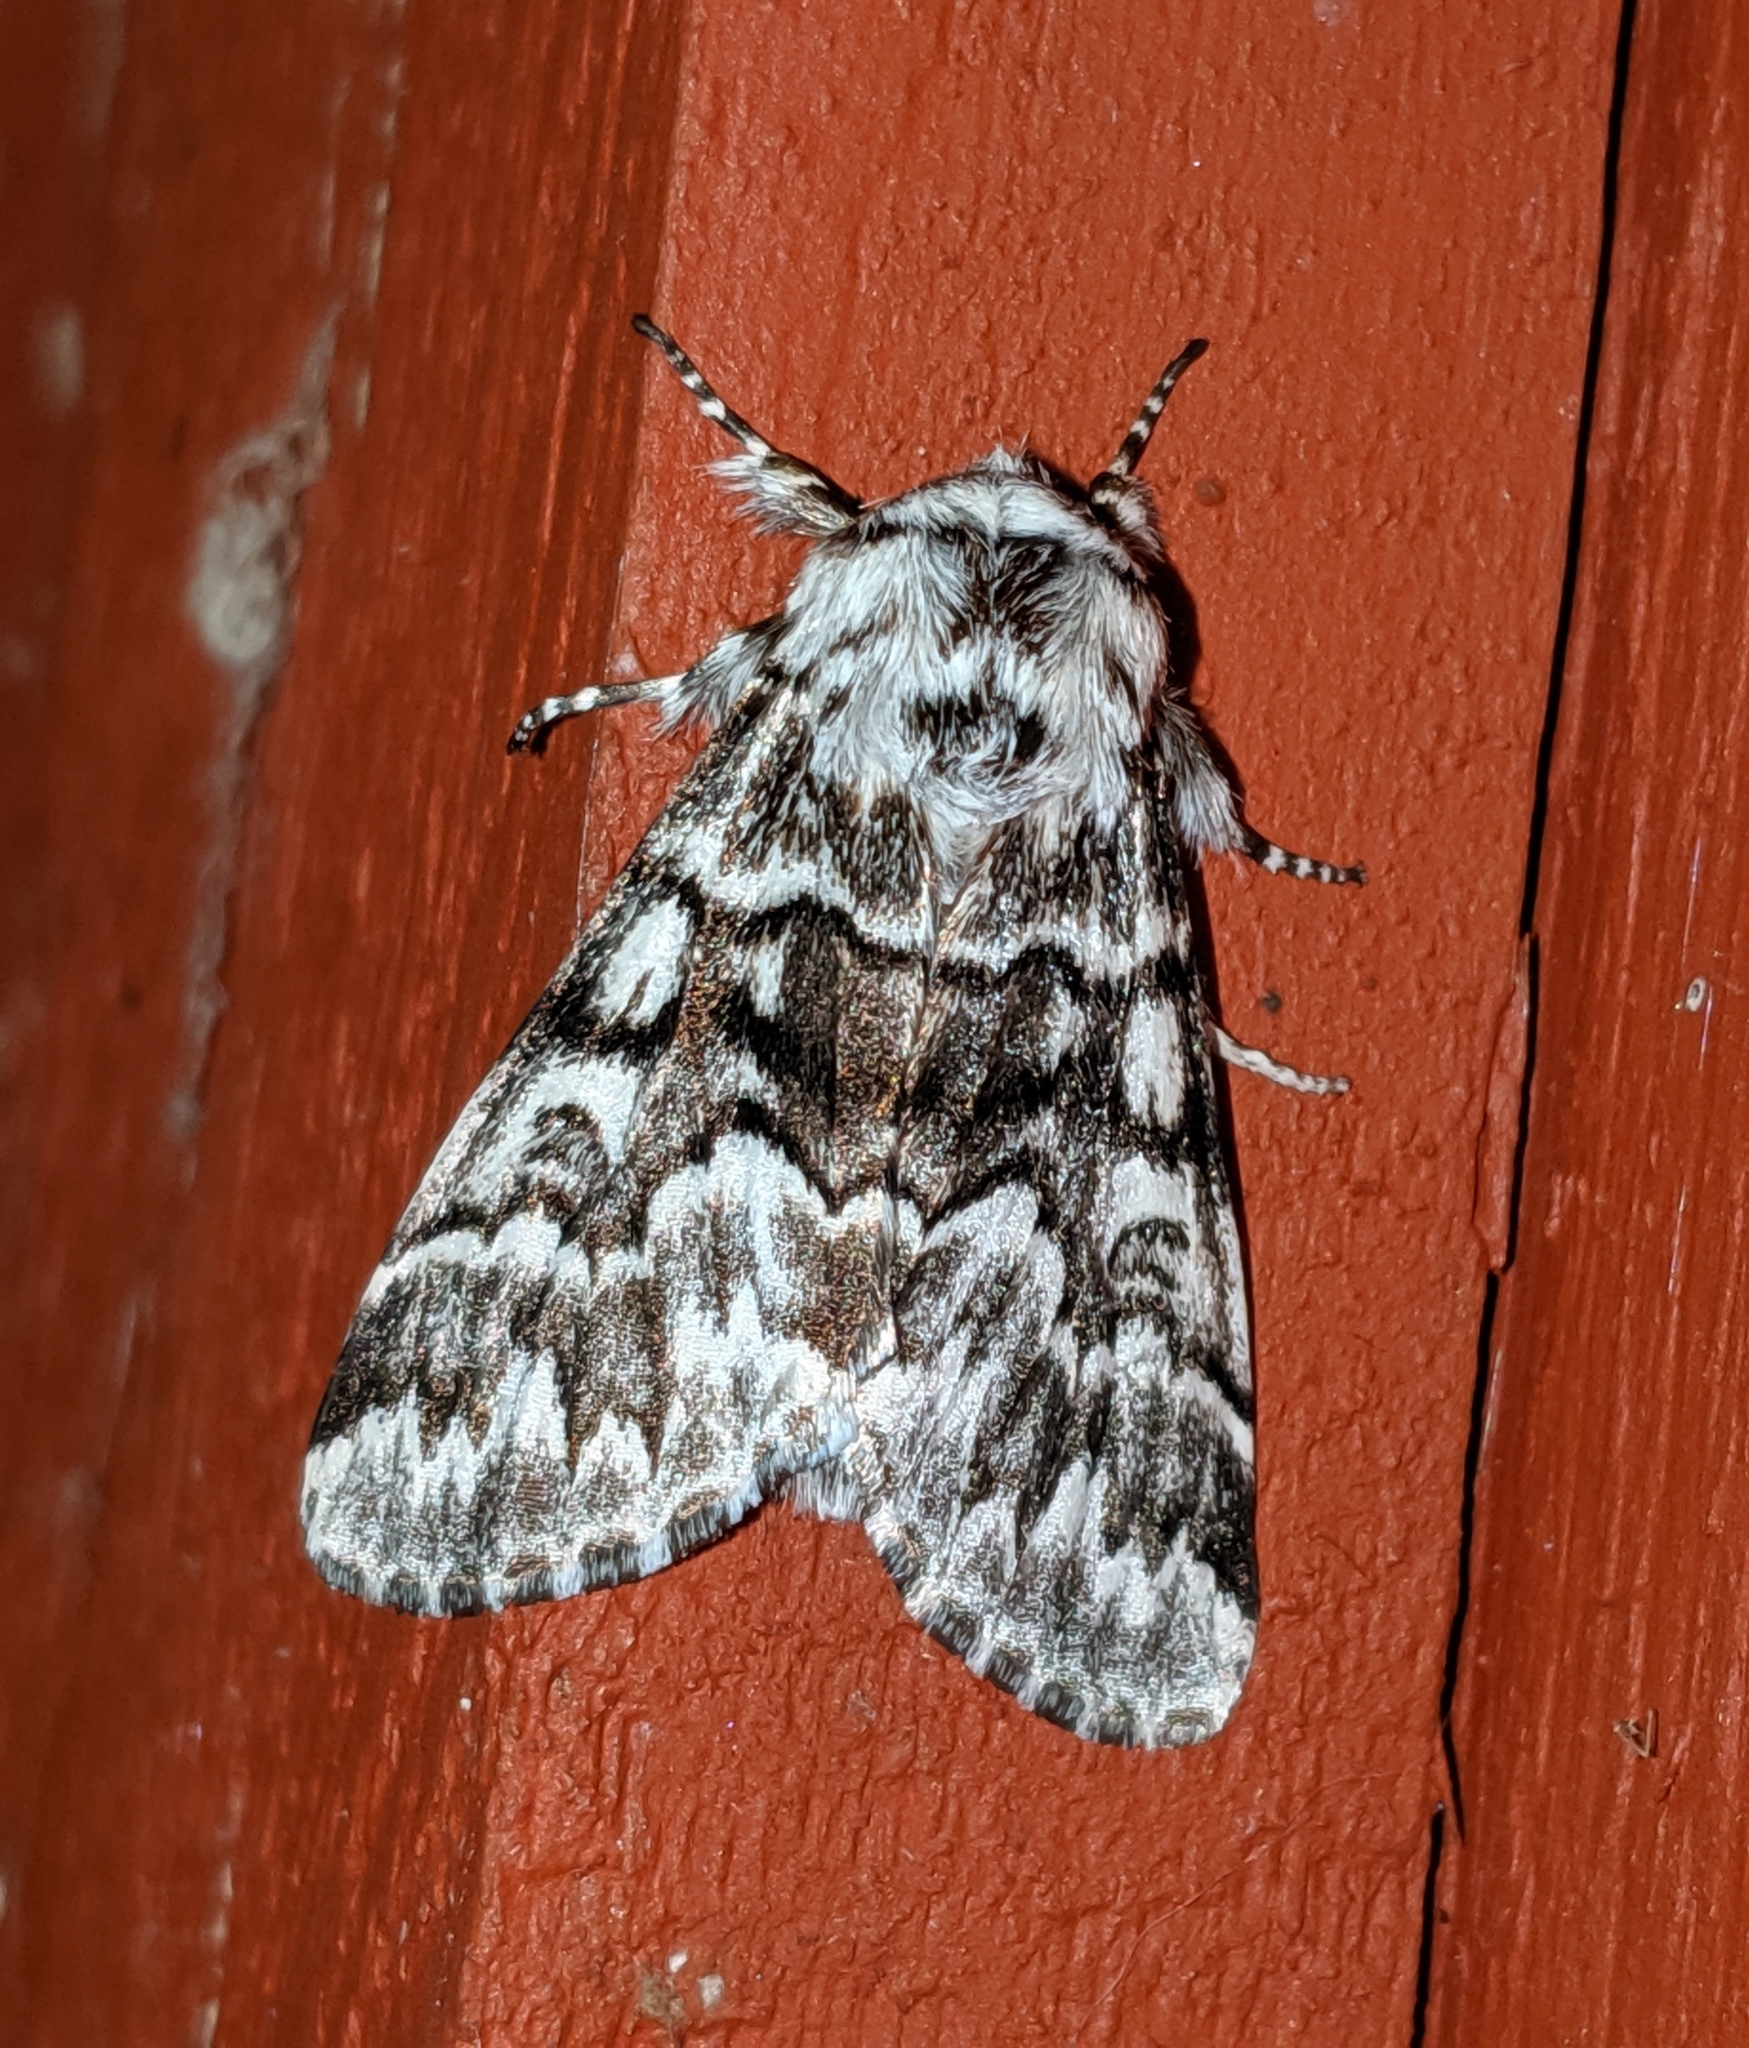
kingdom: Animalia
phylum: Arthropoda
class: Insecta
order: Lepidoptera
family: Noctuidae
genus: Panthea
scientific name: Panthea virginarius
